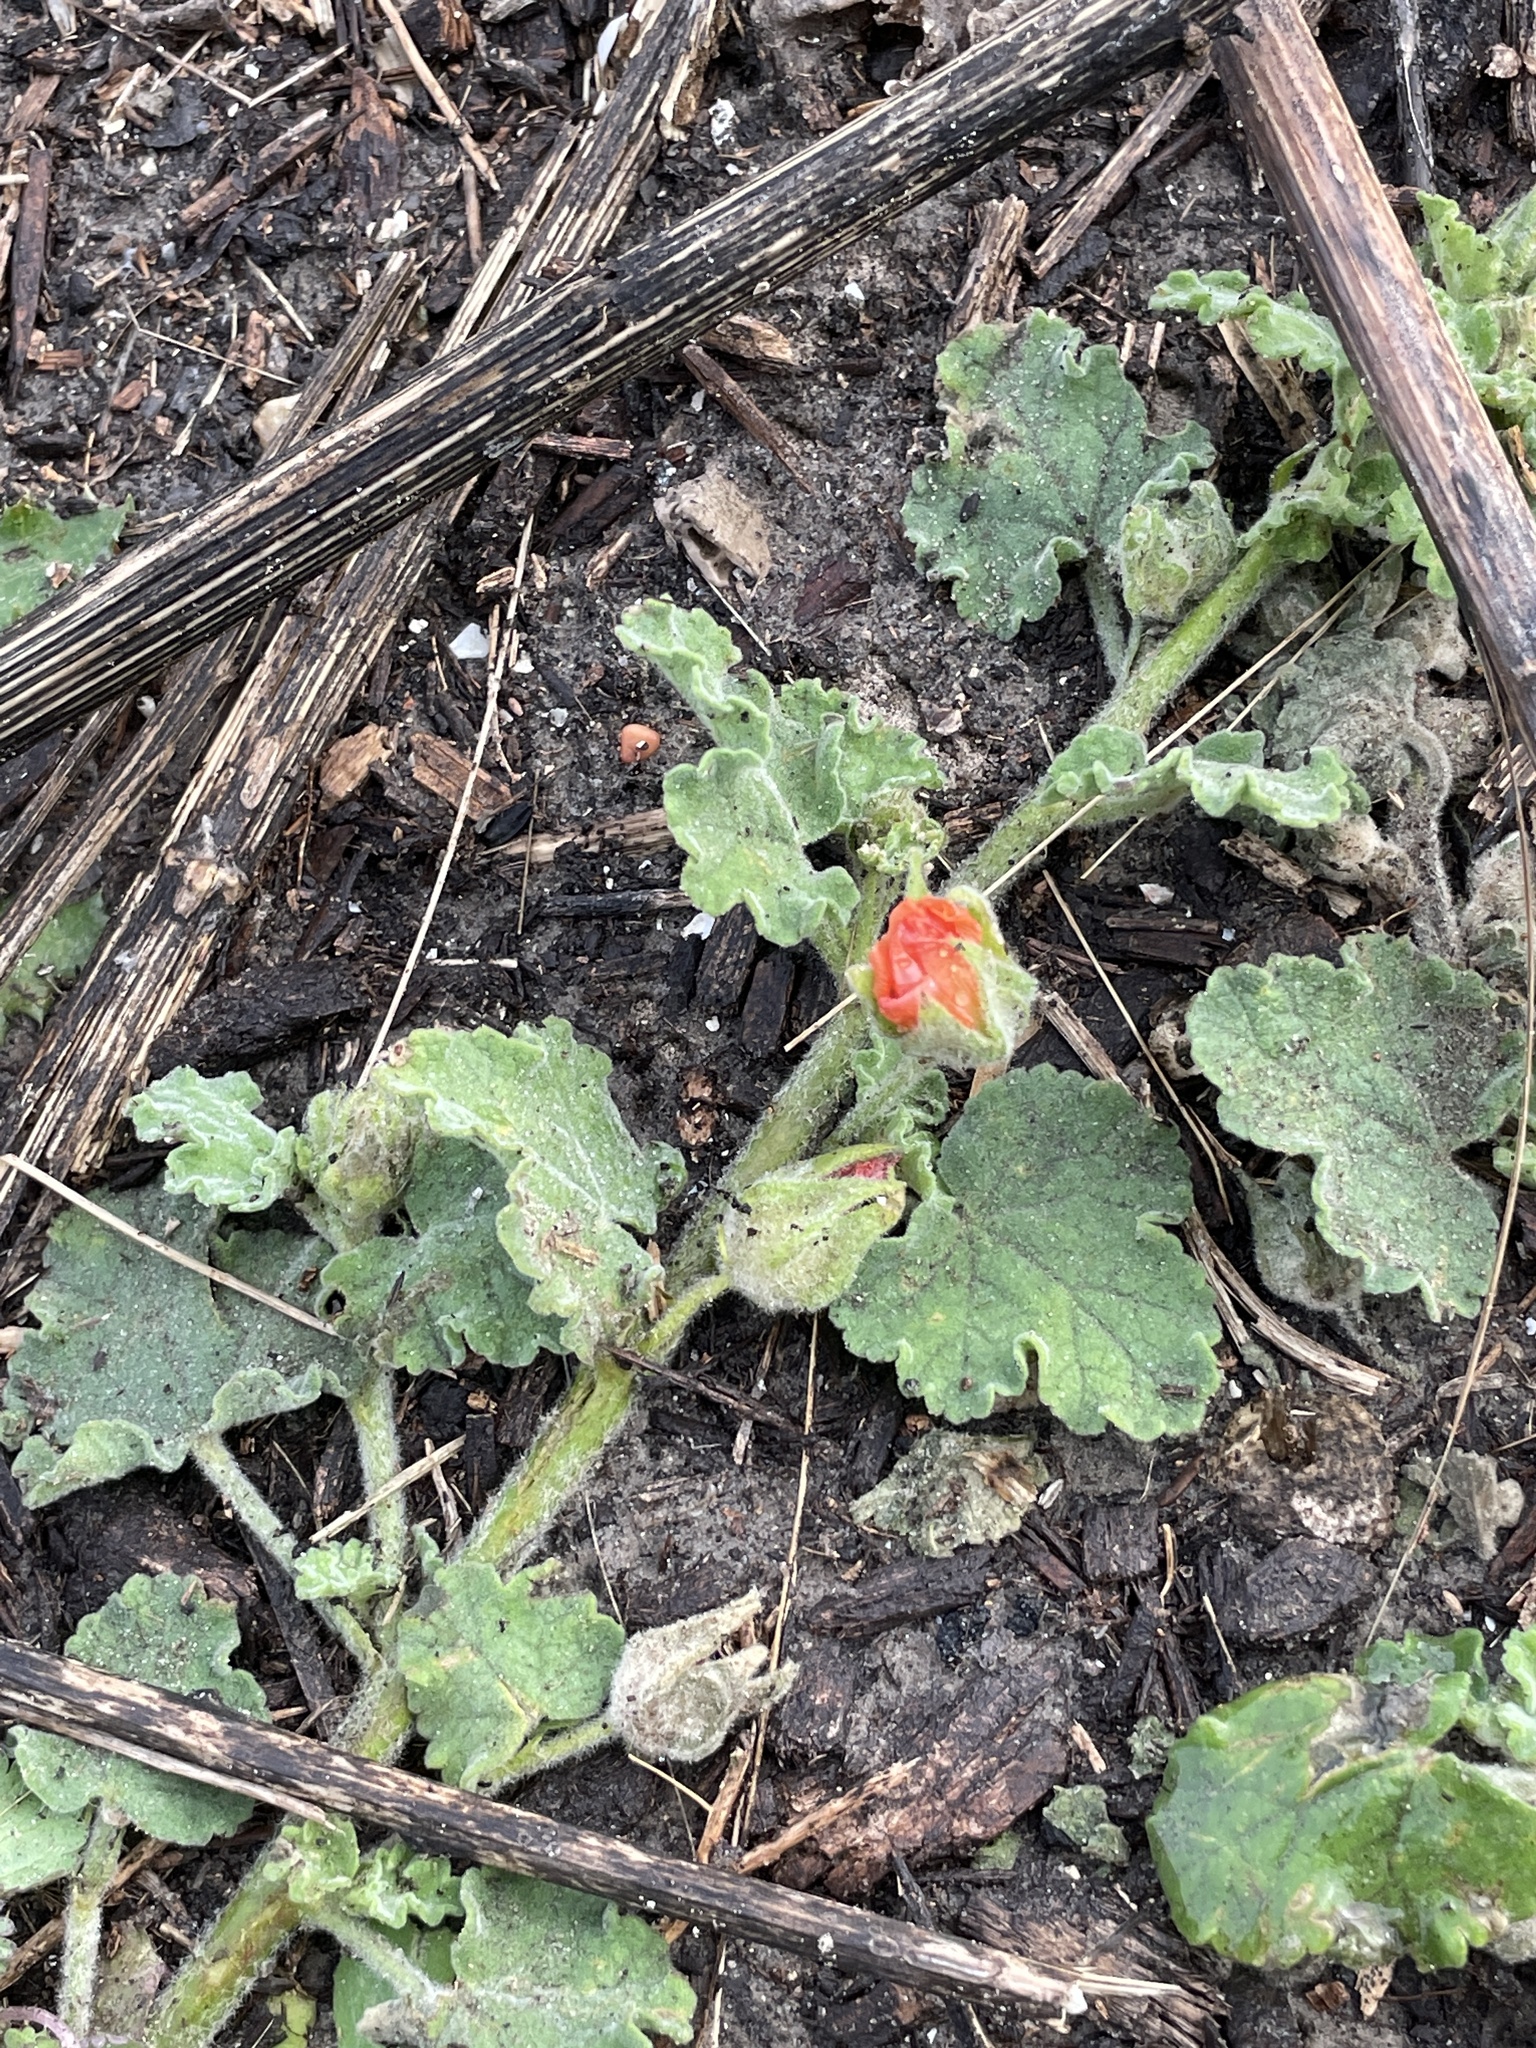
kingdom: Plantae
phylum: Tracheophyta
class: Magnoliopsida
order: Malvales
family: Malvaceae
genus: Sphaeralcea
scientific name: Sphaeralcea lindheimeri
